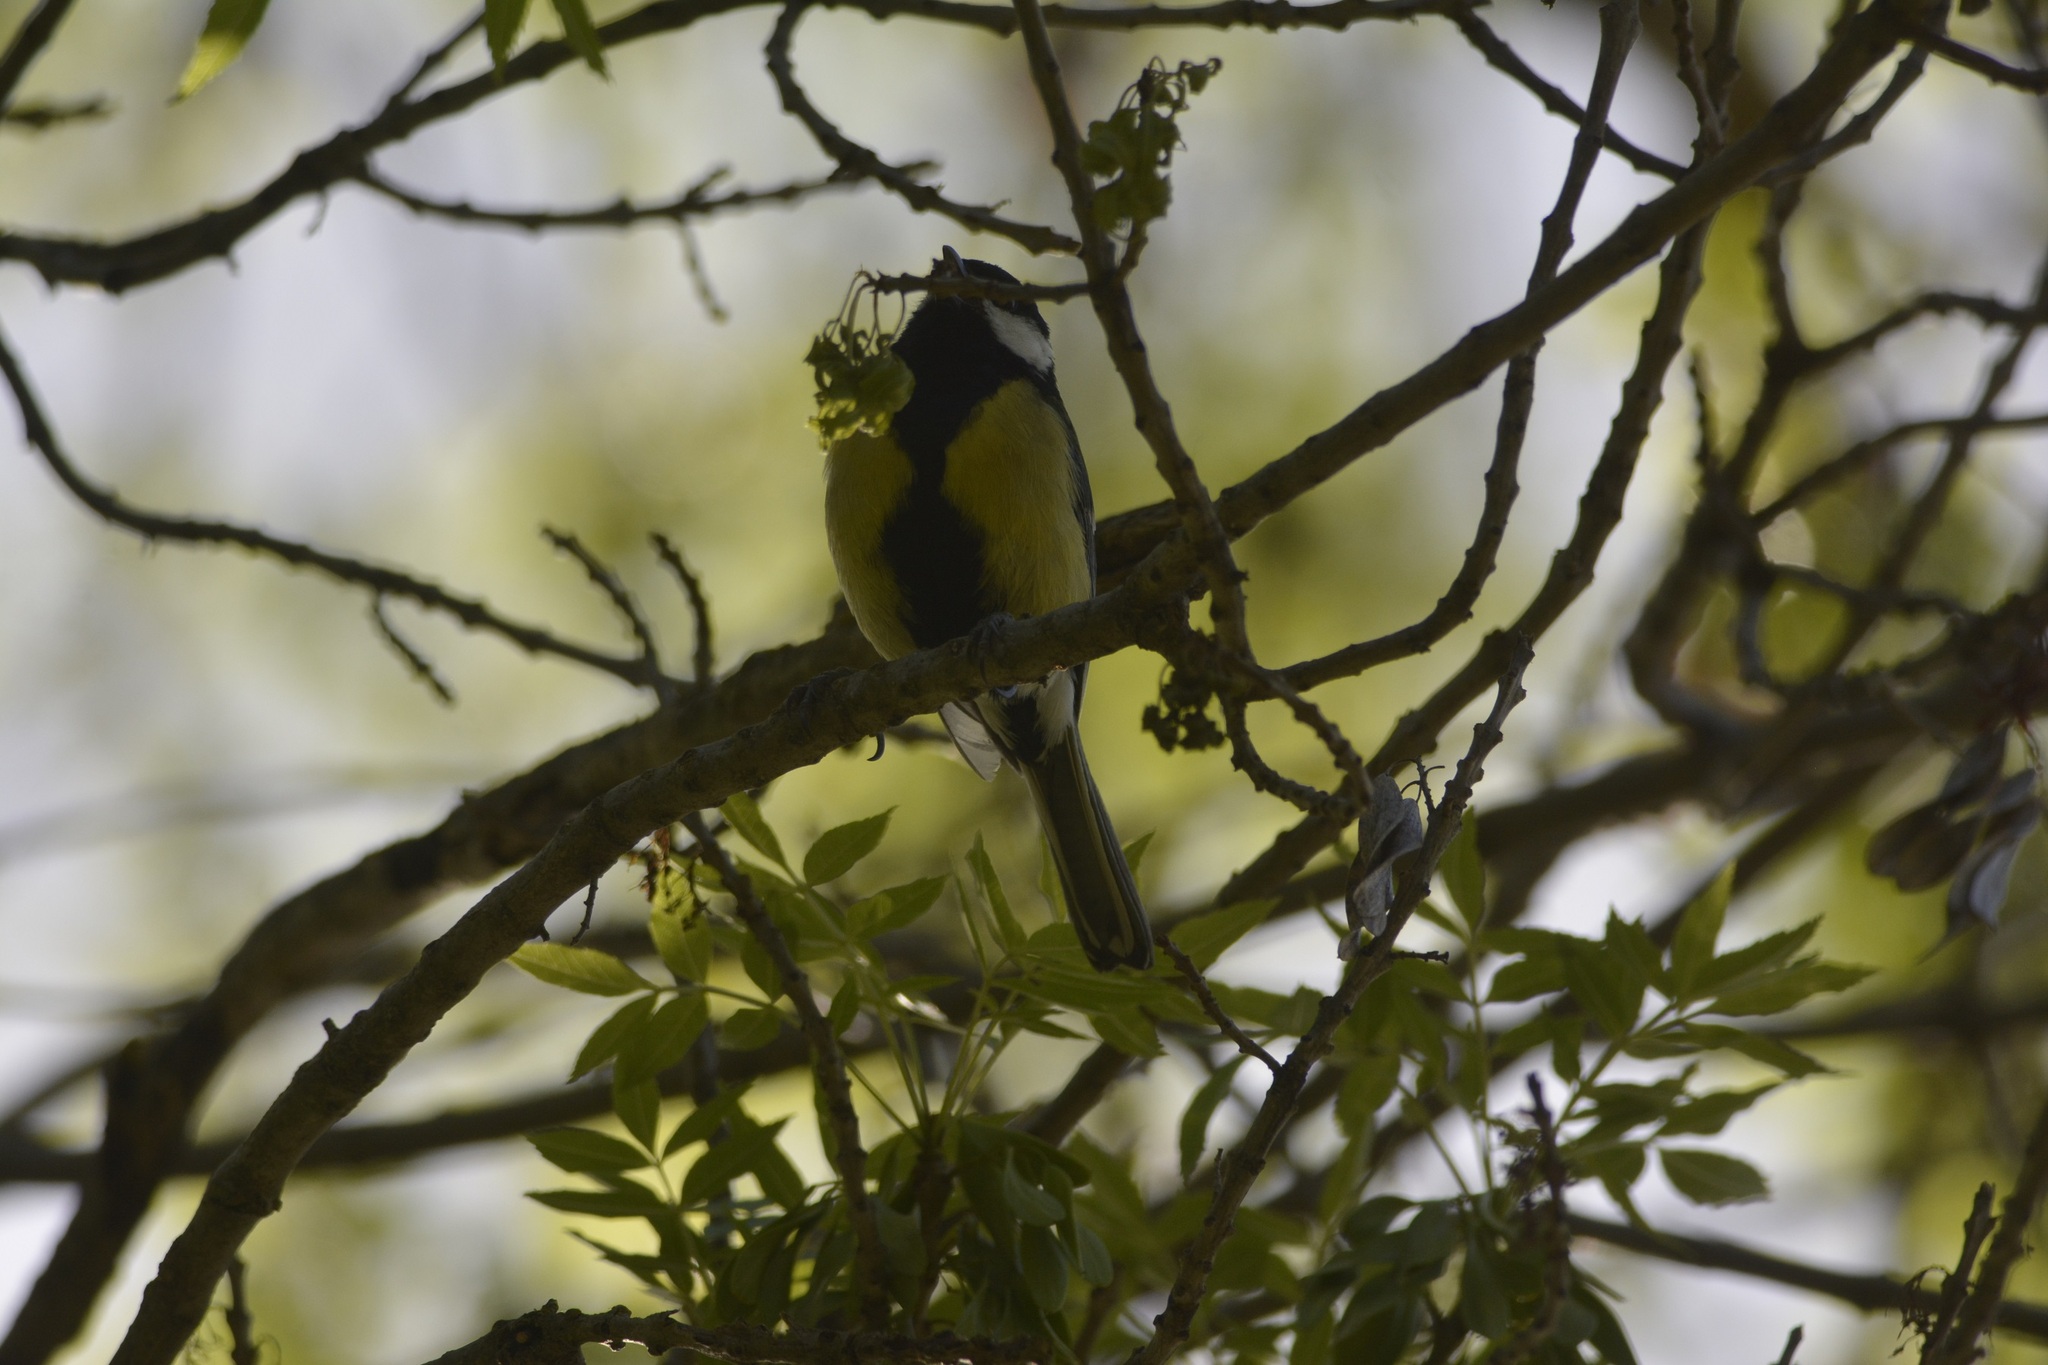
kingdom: Animalia
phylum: Chordata
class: Aves
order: Passeriformes
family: Paridae
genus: Parus
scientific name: Parus major
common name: Great tit
